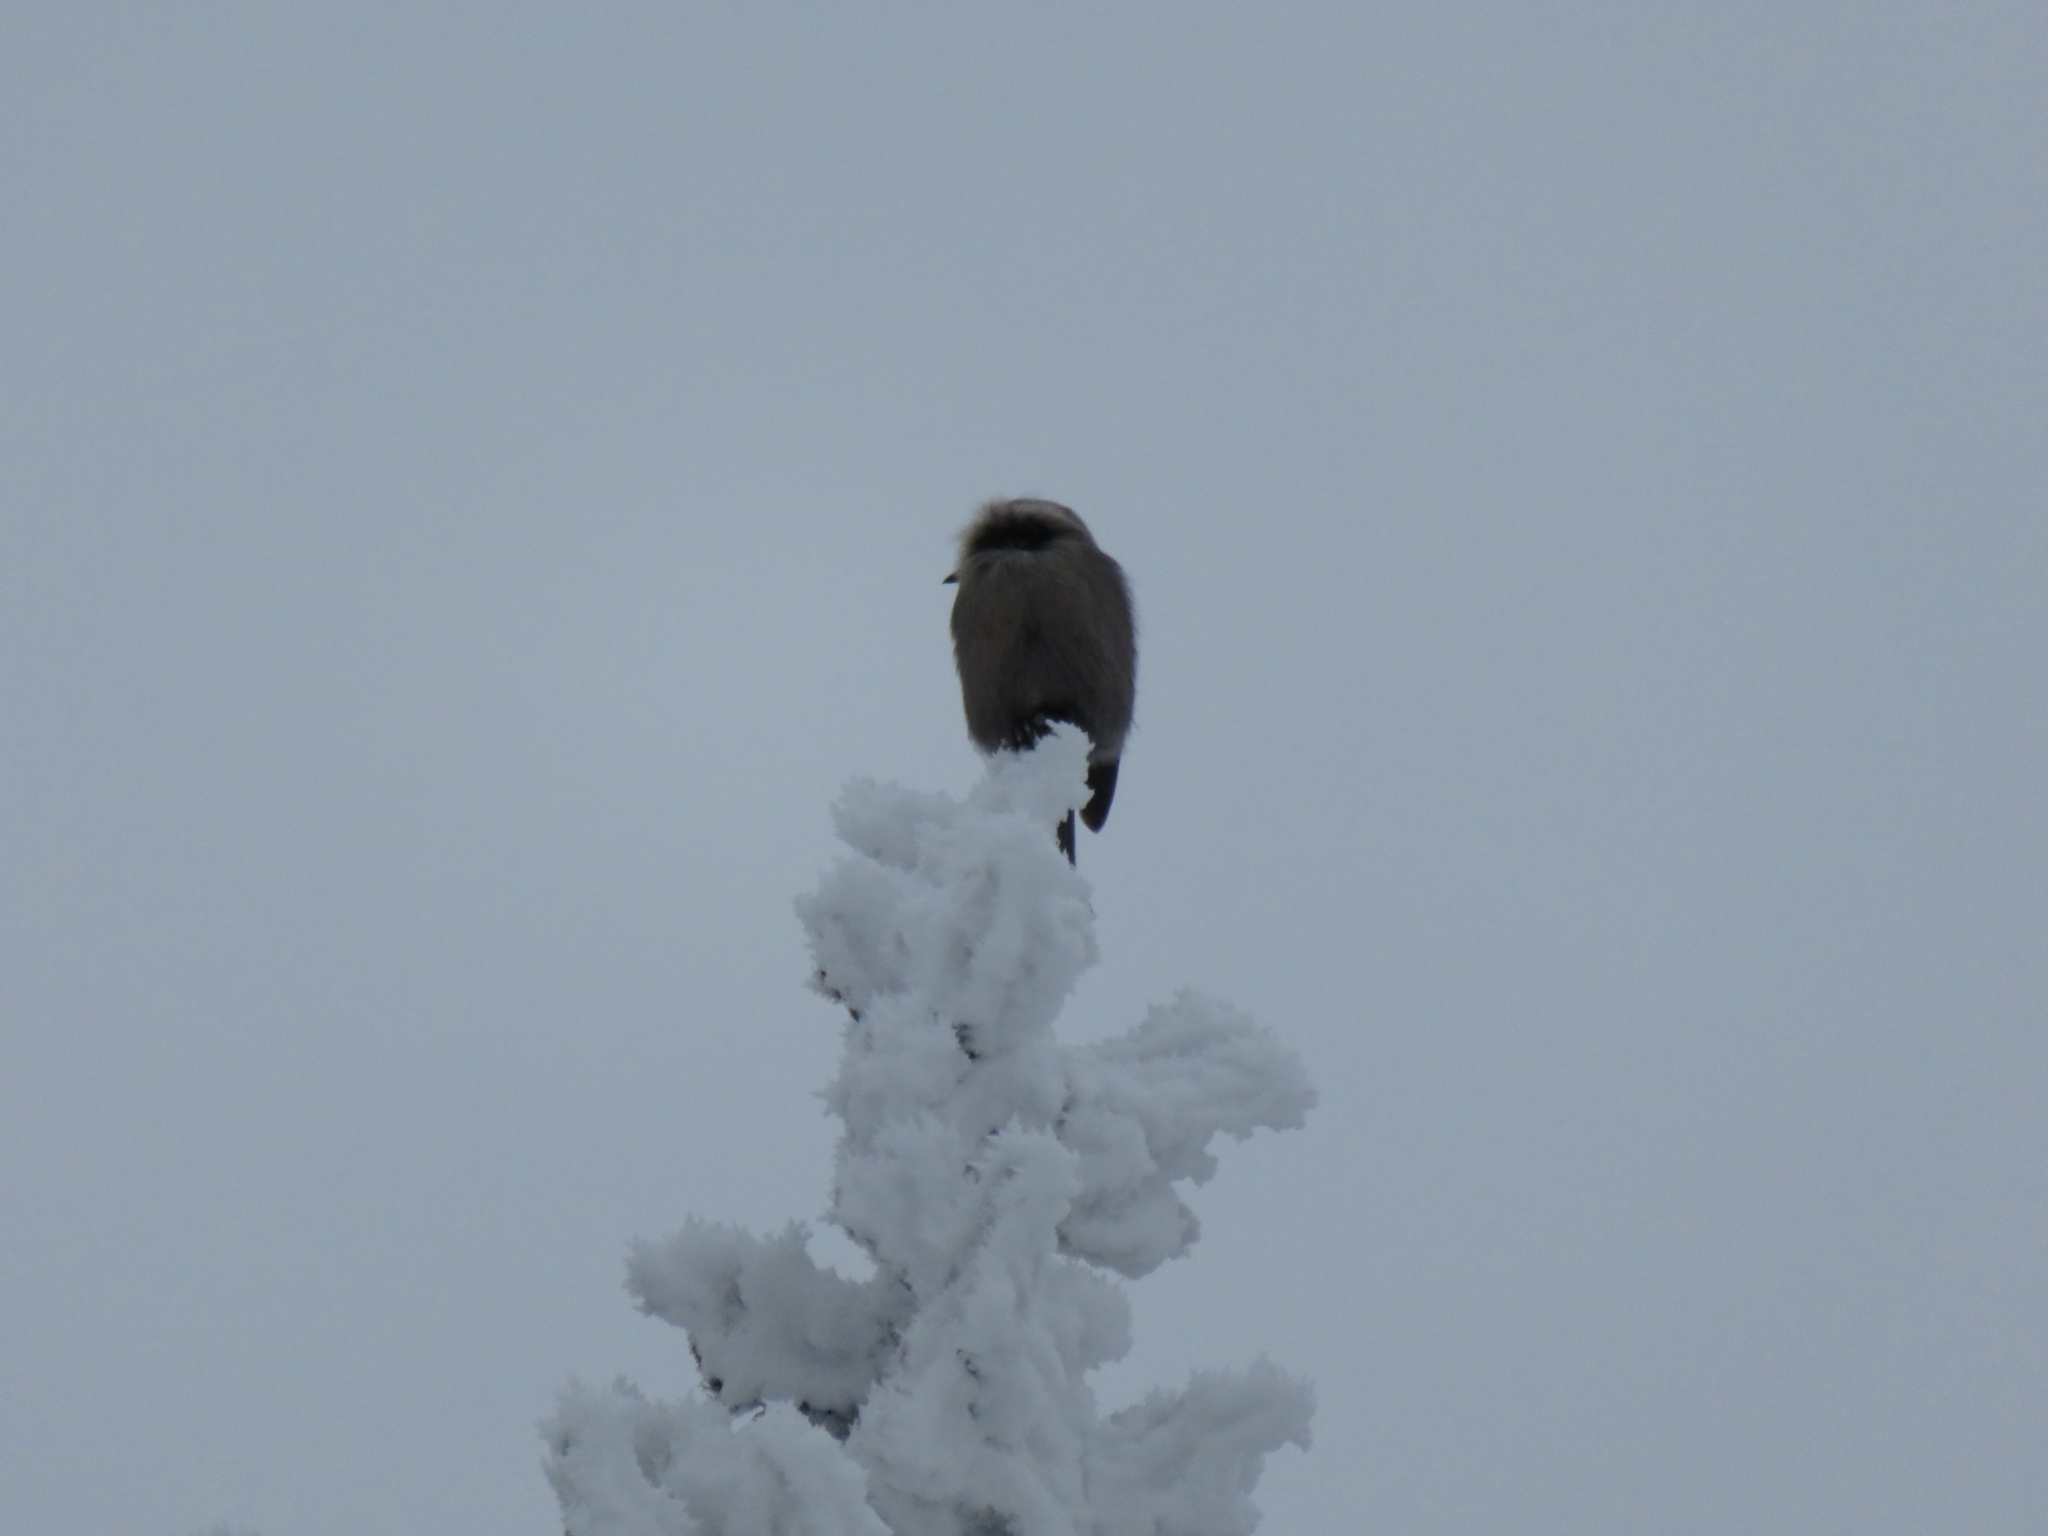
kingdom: Animalia
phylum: Chordata
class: Aves
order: Passeriformes
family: Corvidae
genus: Perisoreus
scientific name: Perisoreus canadensis
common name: Gray jay
